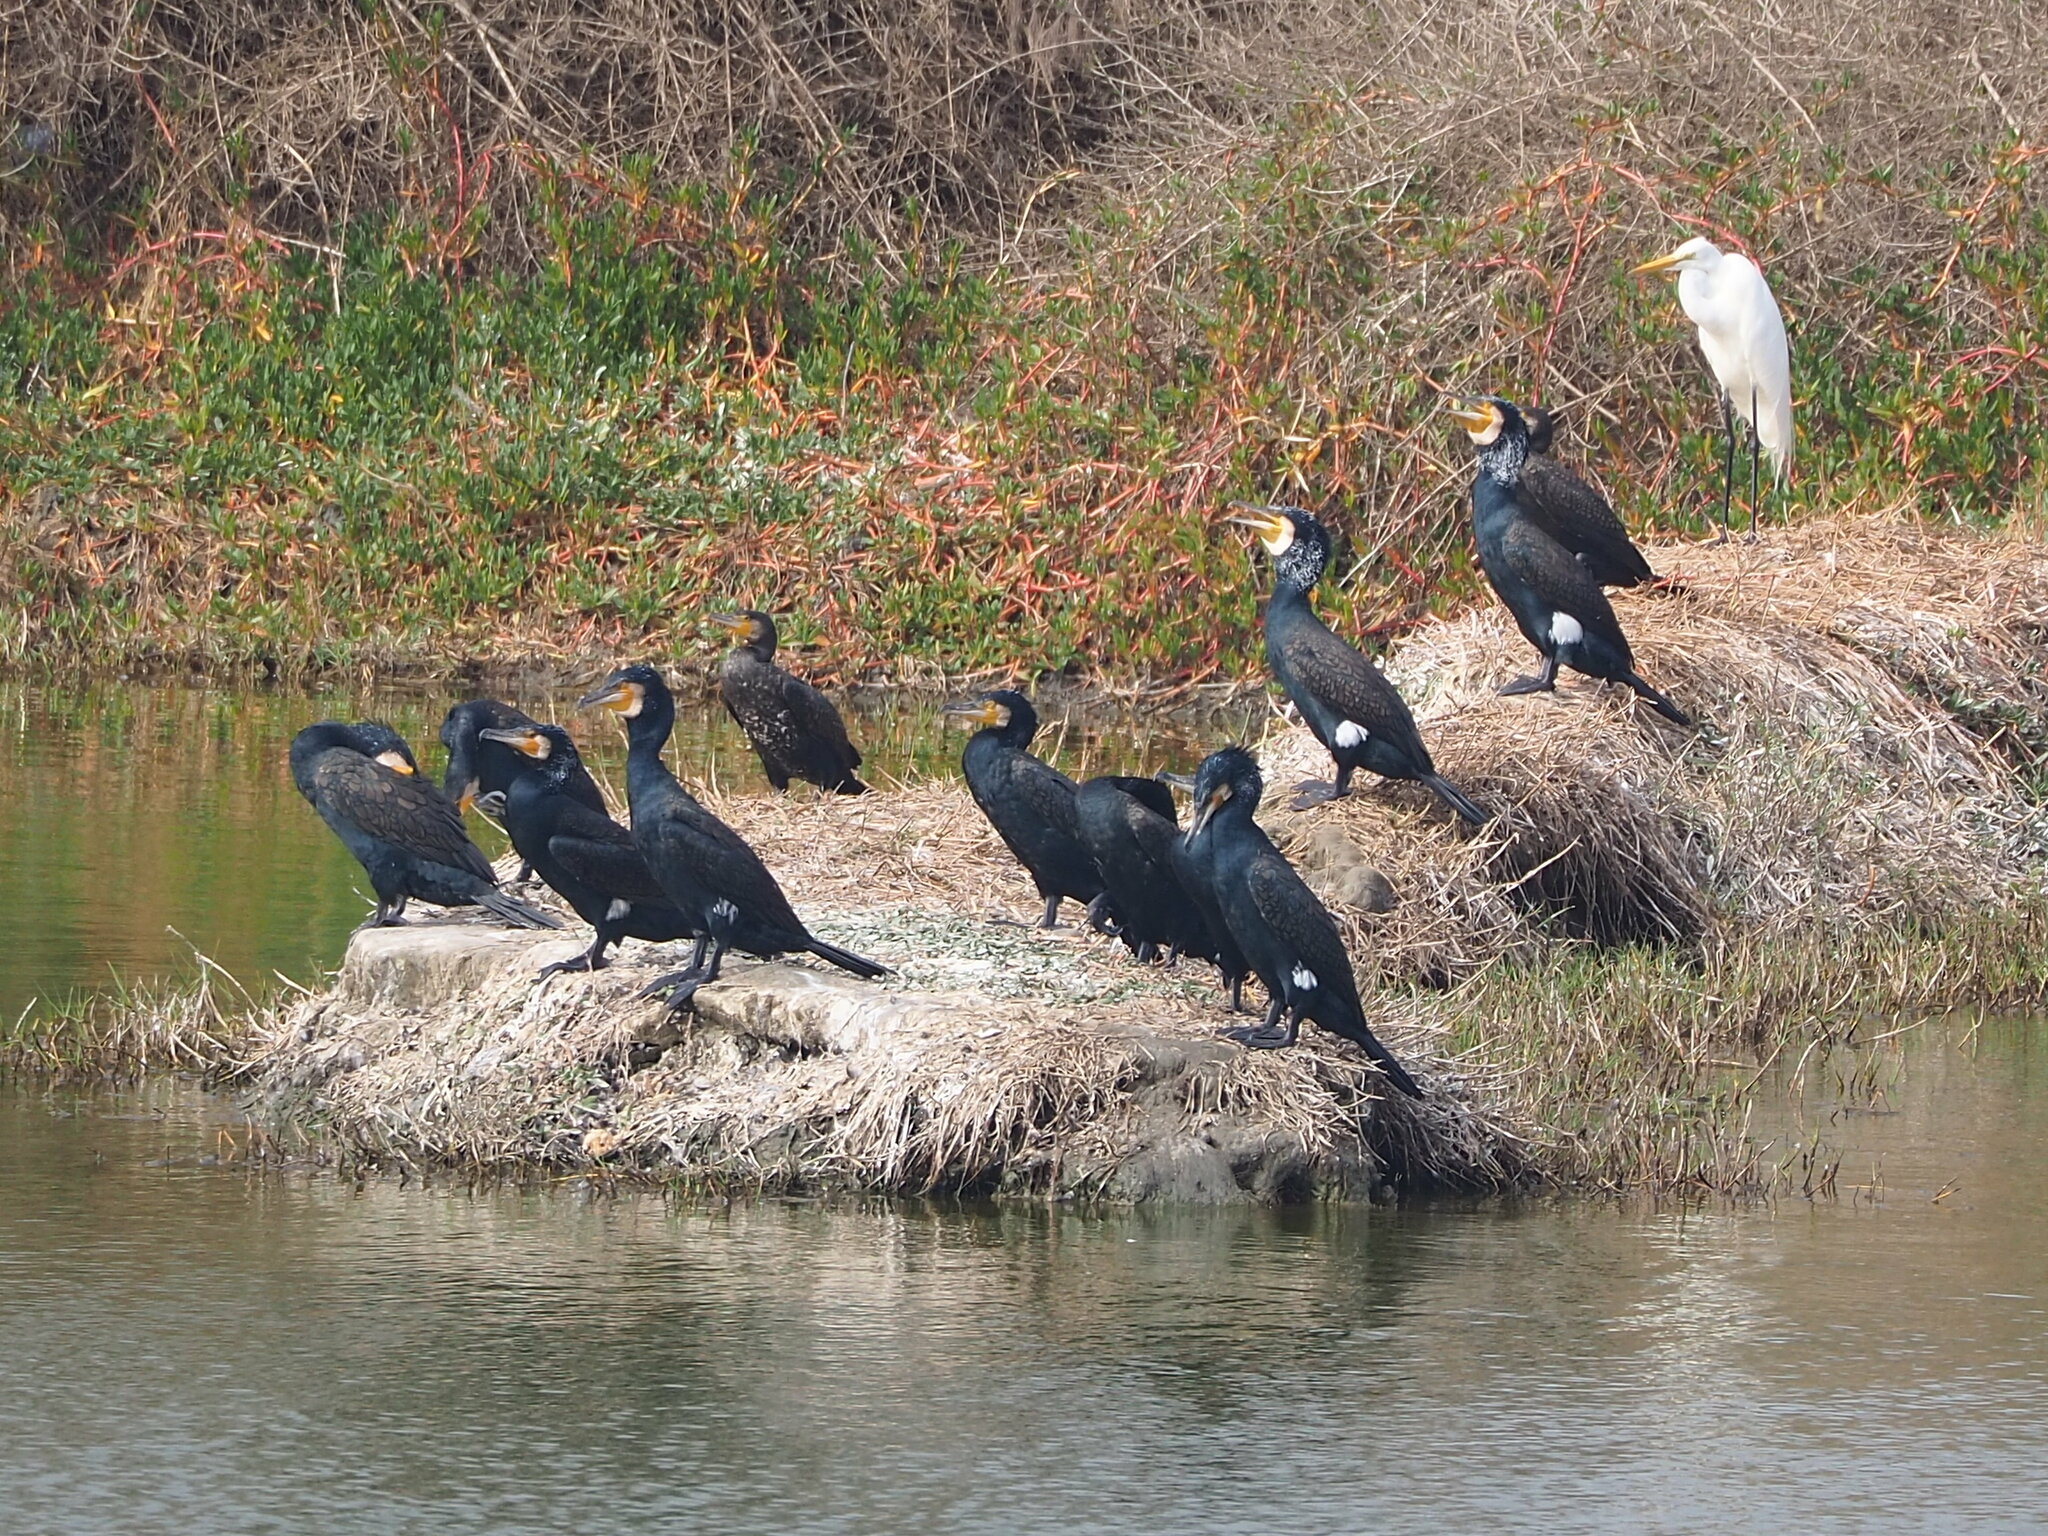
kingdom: Animalia
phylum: Chordata
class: Aves
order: Suliformes
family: Phalacrocoracidae
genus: Phalacrocorax
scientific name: Phalacrocorax carbo
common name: Great cormorant
